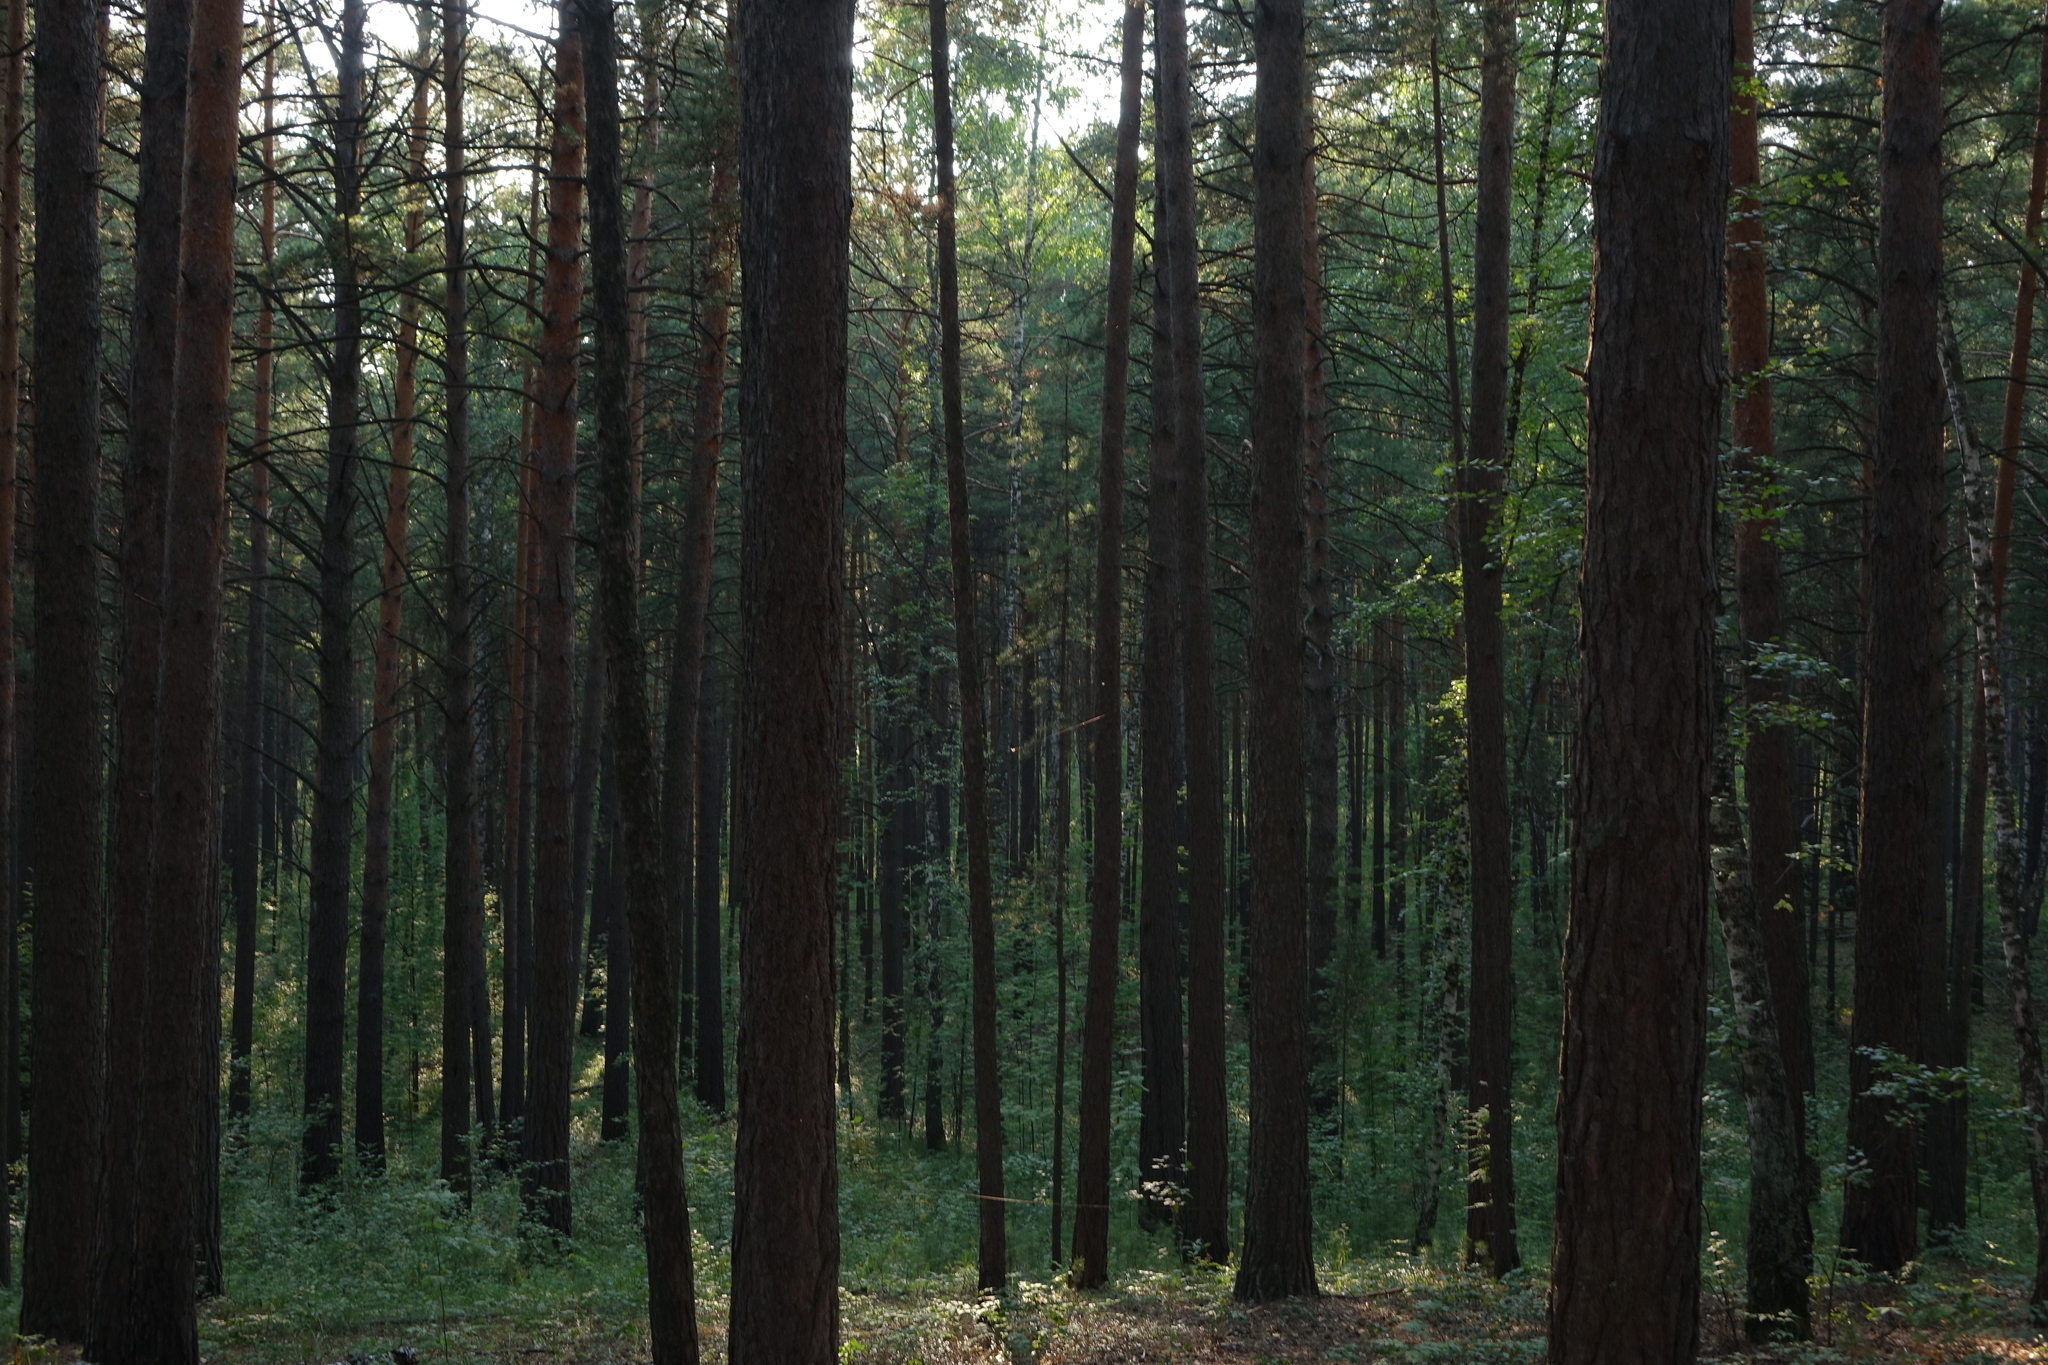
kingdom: Plantae
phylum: Tracheophyta
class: Pinopsida
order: Pinales
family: Pinaceae
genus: Pinus
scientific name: Pinus sylvestris
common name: Scots pine
